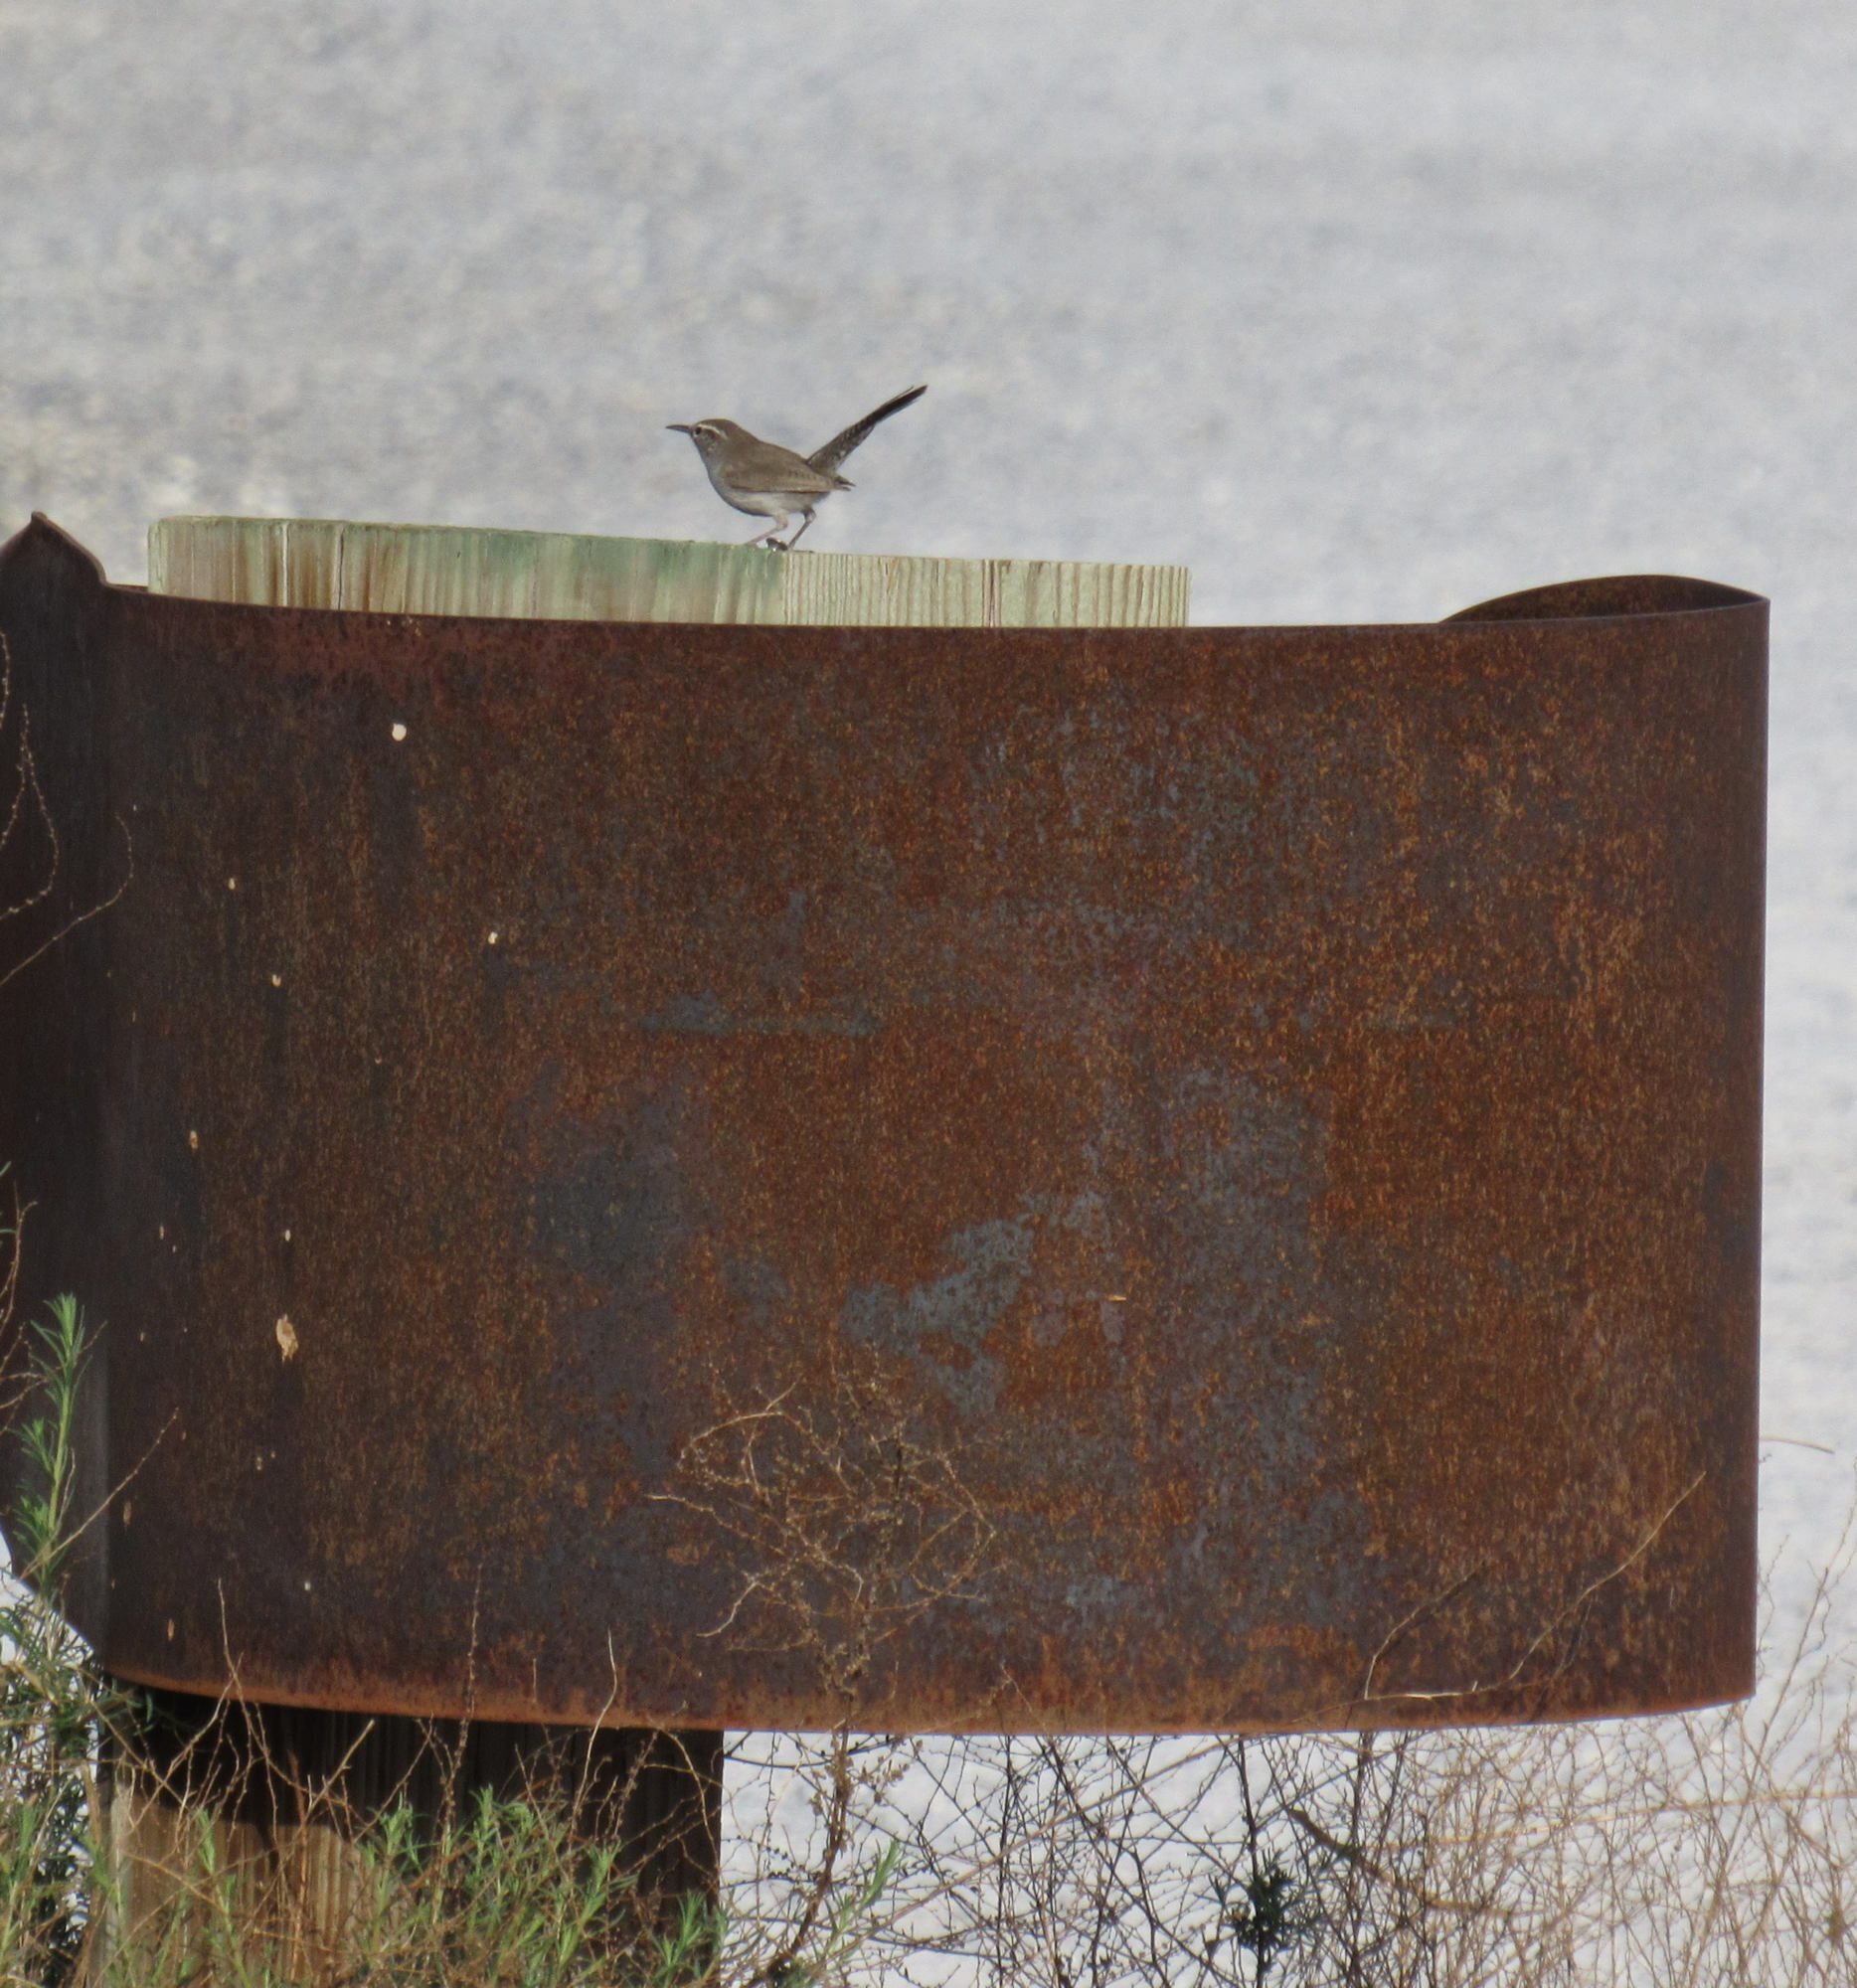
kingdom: Animalia
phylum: Chordata
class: Aves
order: Passeriformes
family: Troglodytidae
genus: Thryomanes
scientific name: Thryomanes bewickii
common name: Bewick's wren
